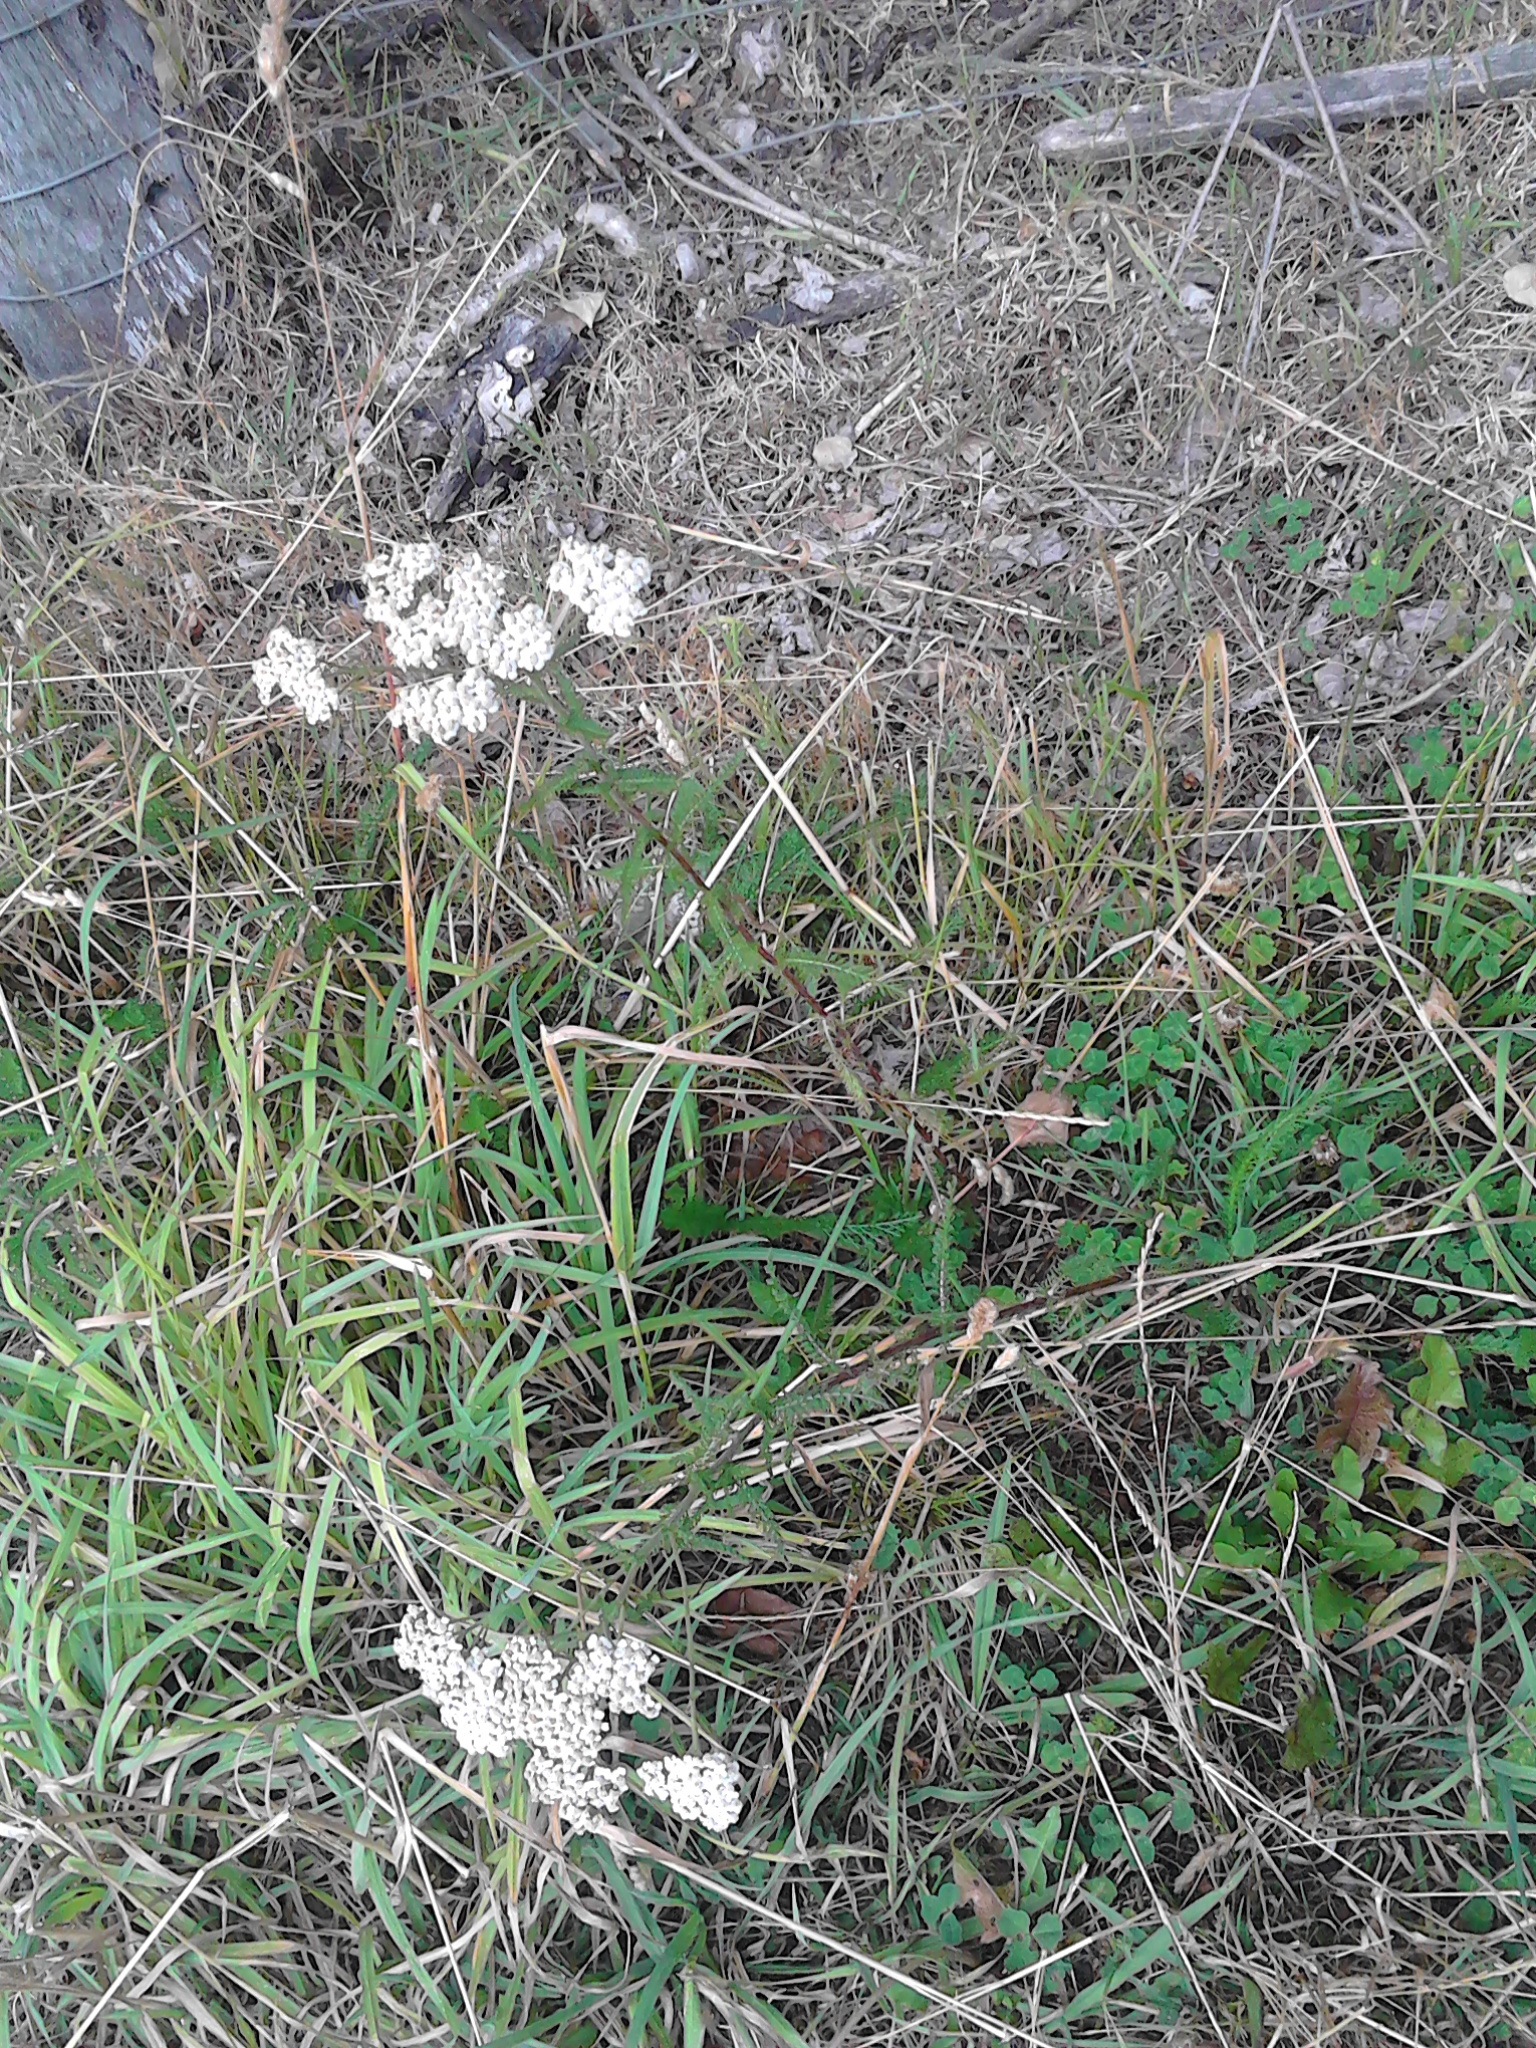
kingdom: Plantae
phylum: Tracheophyta
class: Magnoliopsida
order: Asterales
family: Asteraceae
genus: Achillea
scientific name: Achillea millefolium
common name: Yarrow
